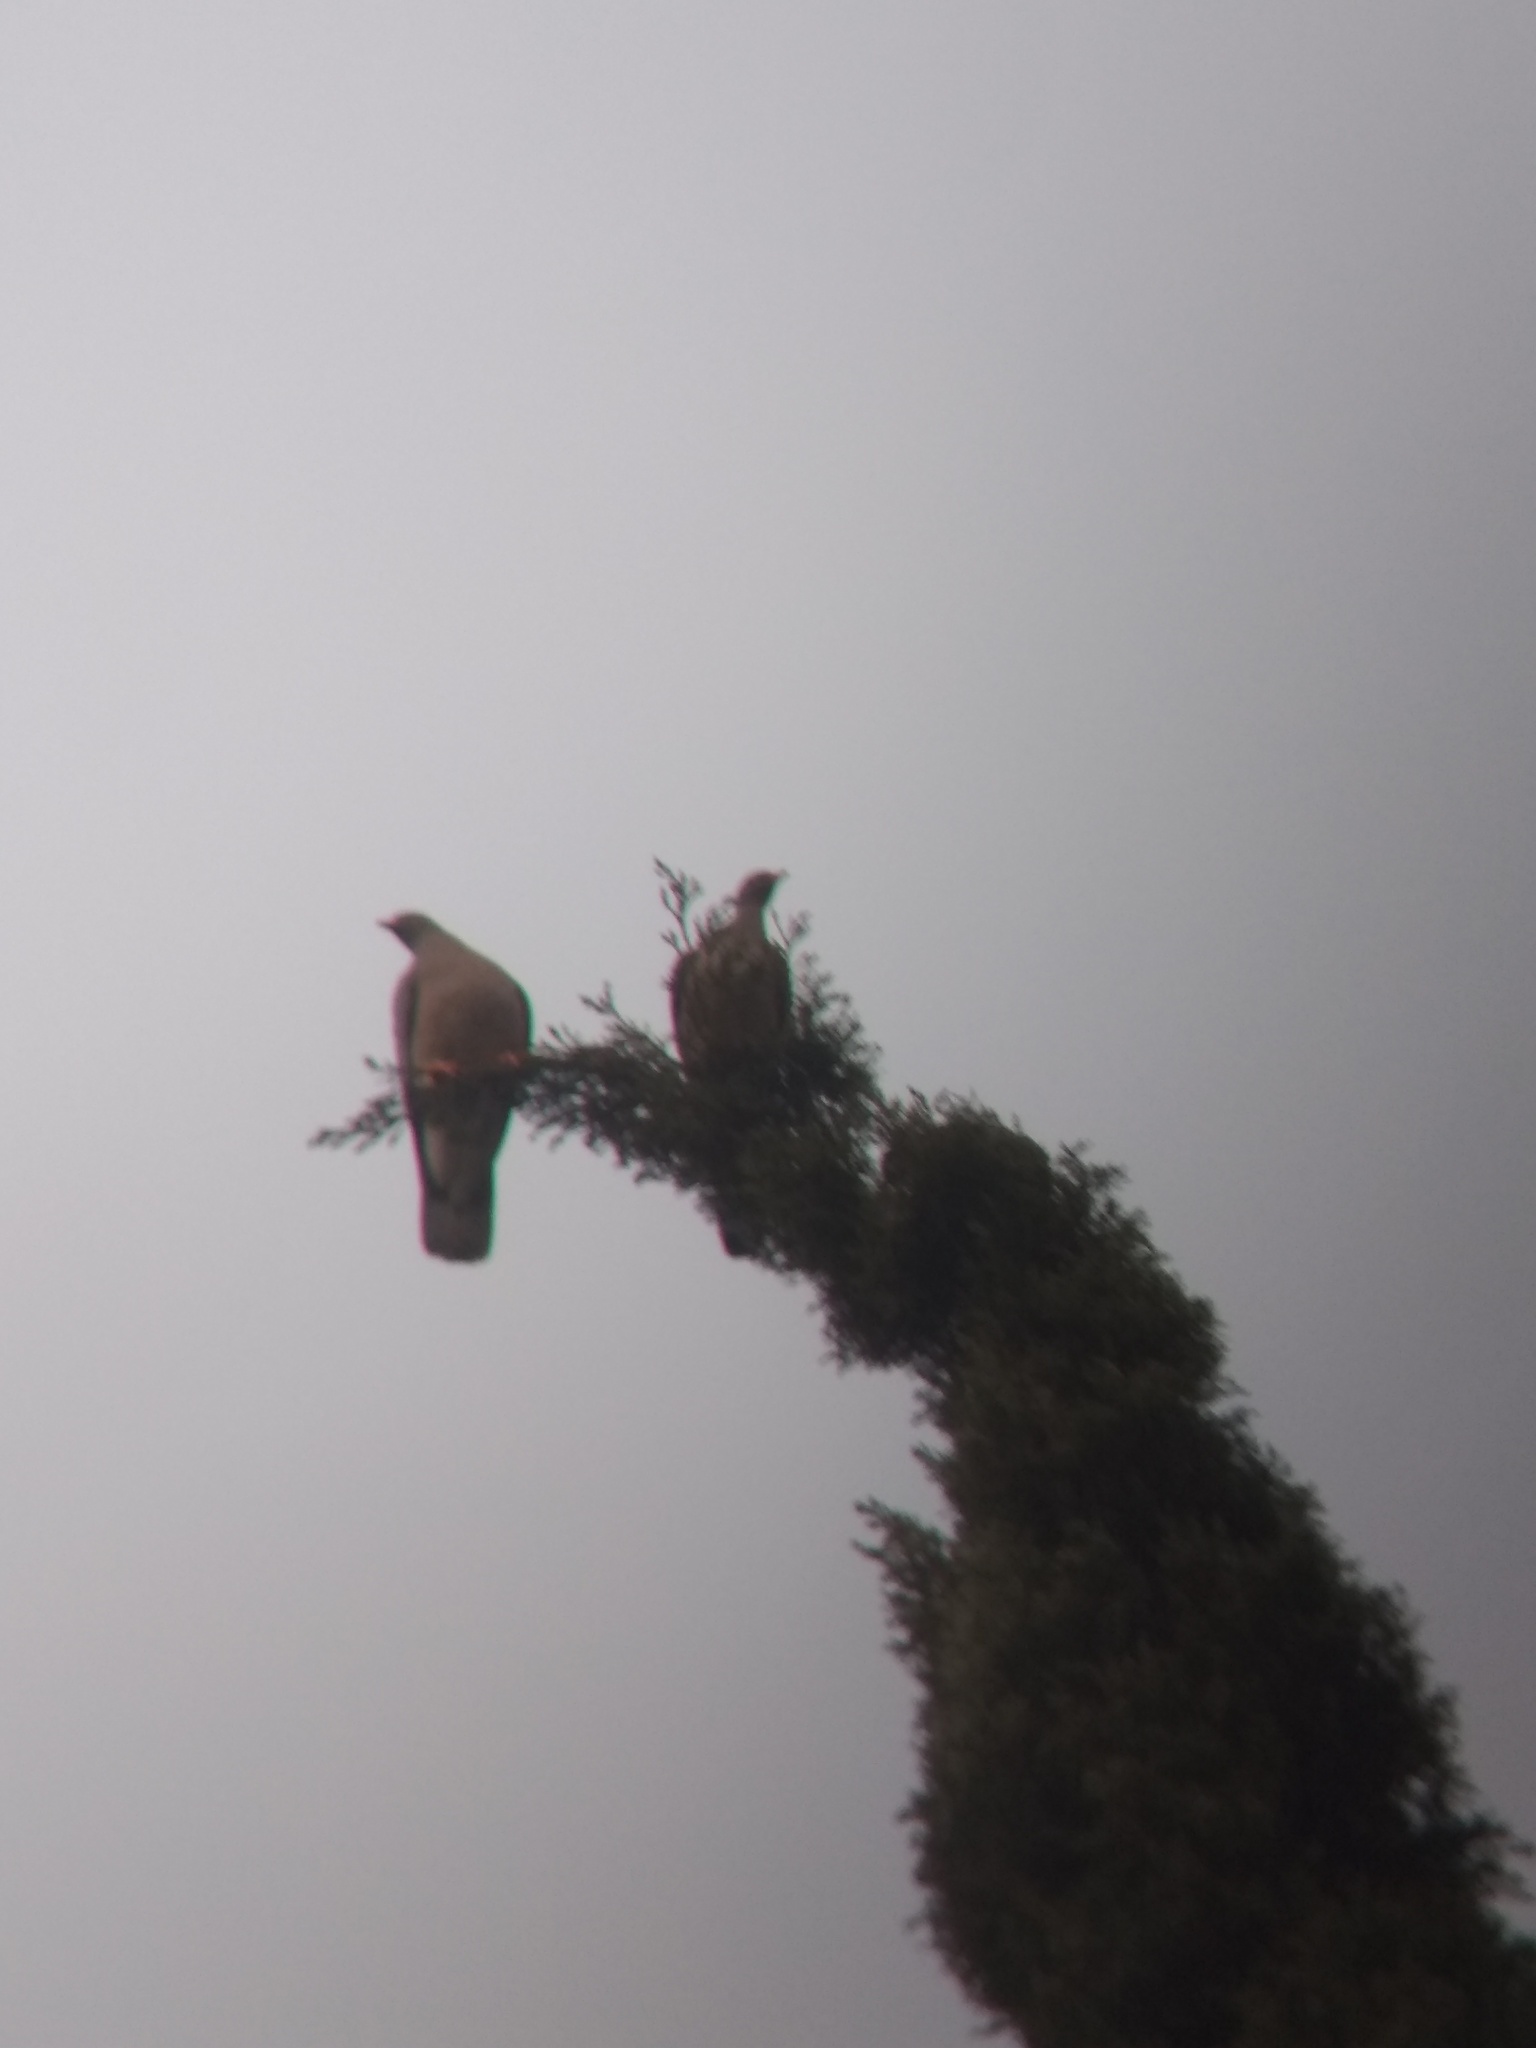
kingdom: Animalia
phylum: Chordata
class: Aves
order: Columbiformes
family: Columbidae
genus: Patagioenas
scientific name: Patagioenas fasciata
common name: Band-tailed pigeon
